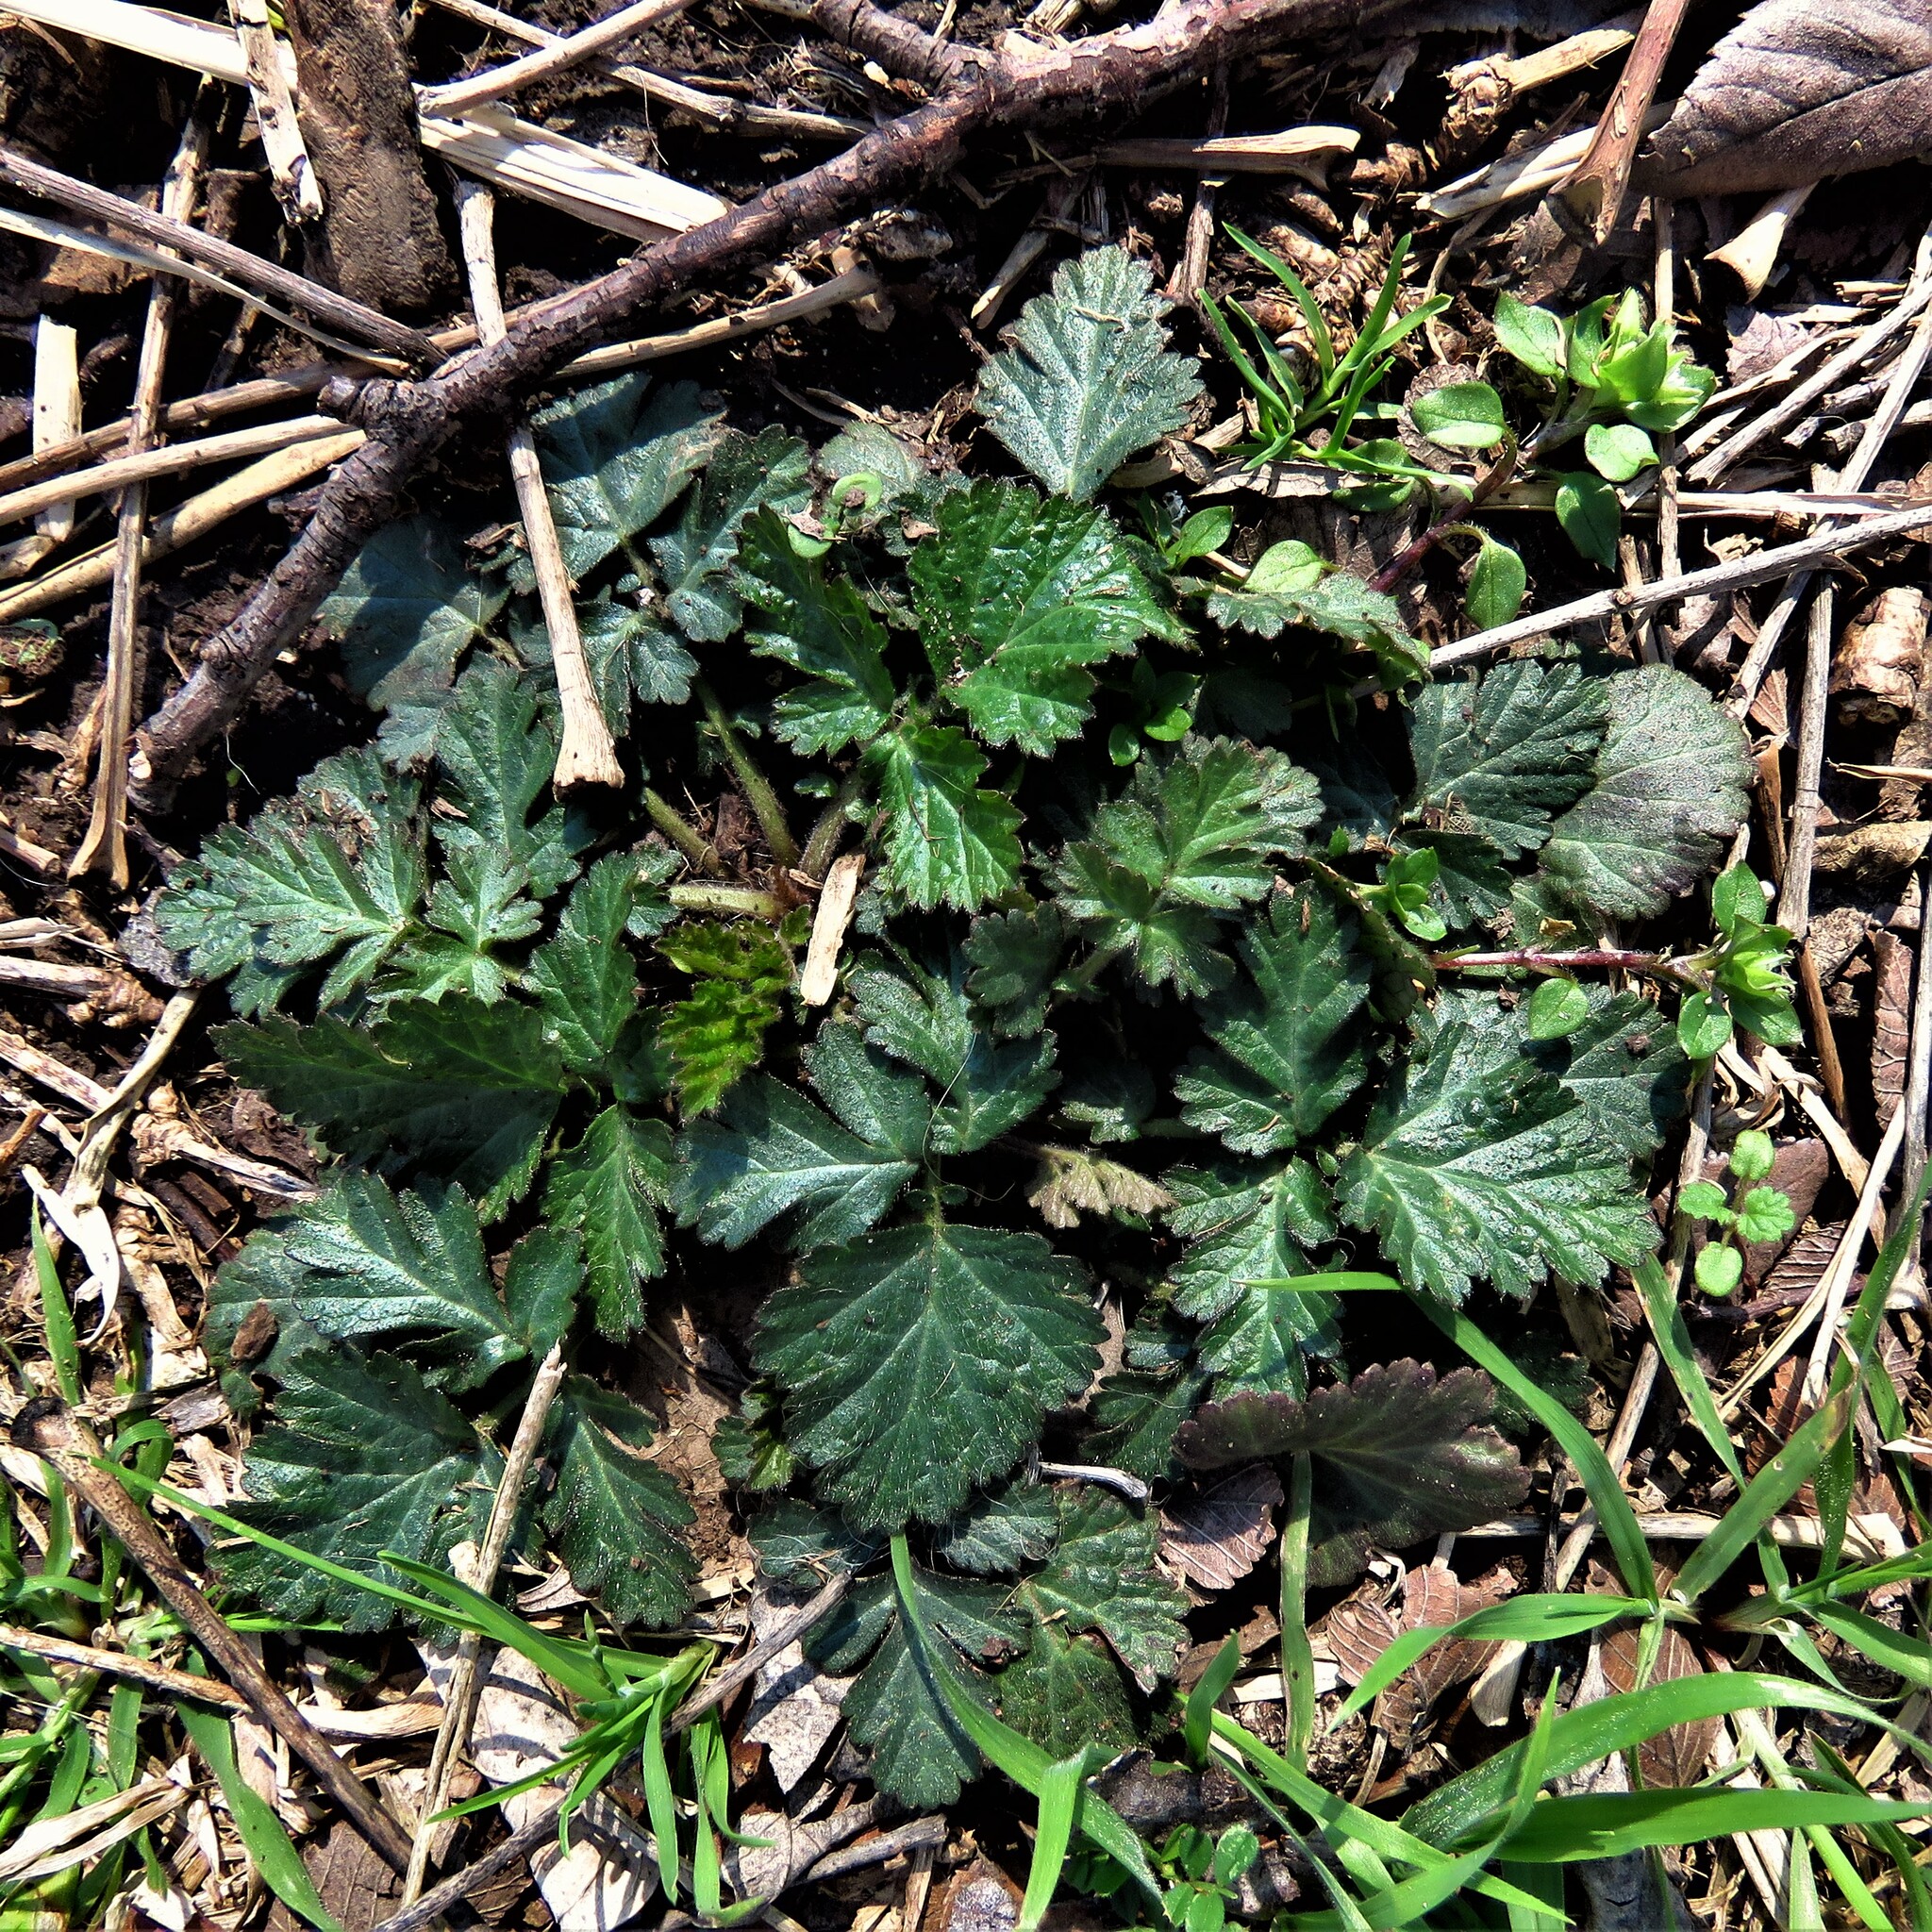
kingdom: Plantae
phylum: Tracheophyta
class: Magnoliopsida
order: Rosales
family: Rosaceae
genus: Geum
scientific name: Geum canadense
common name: White avens
